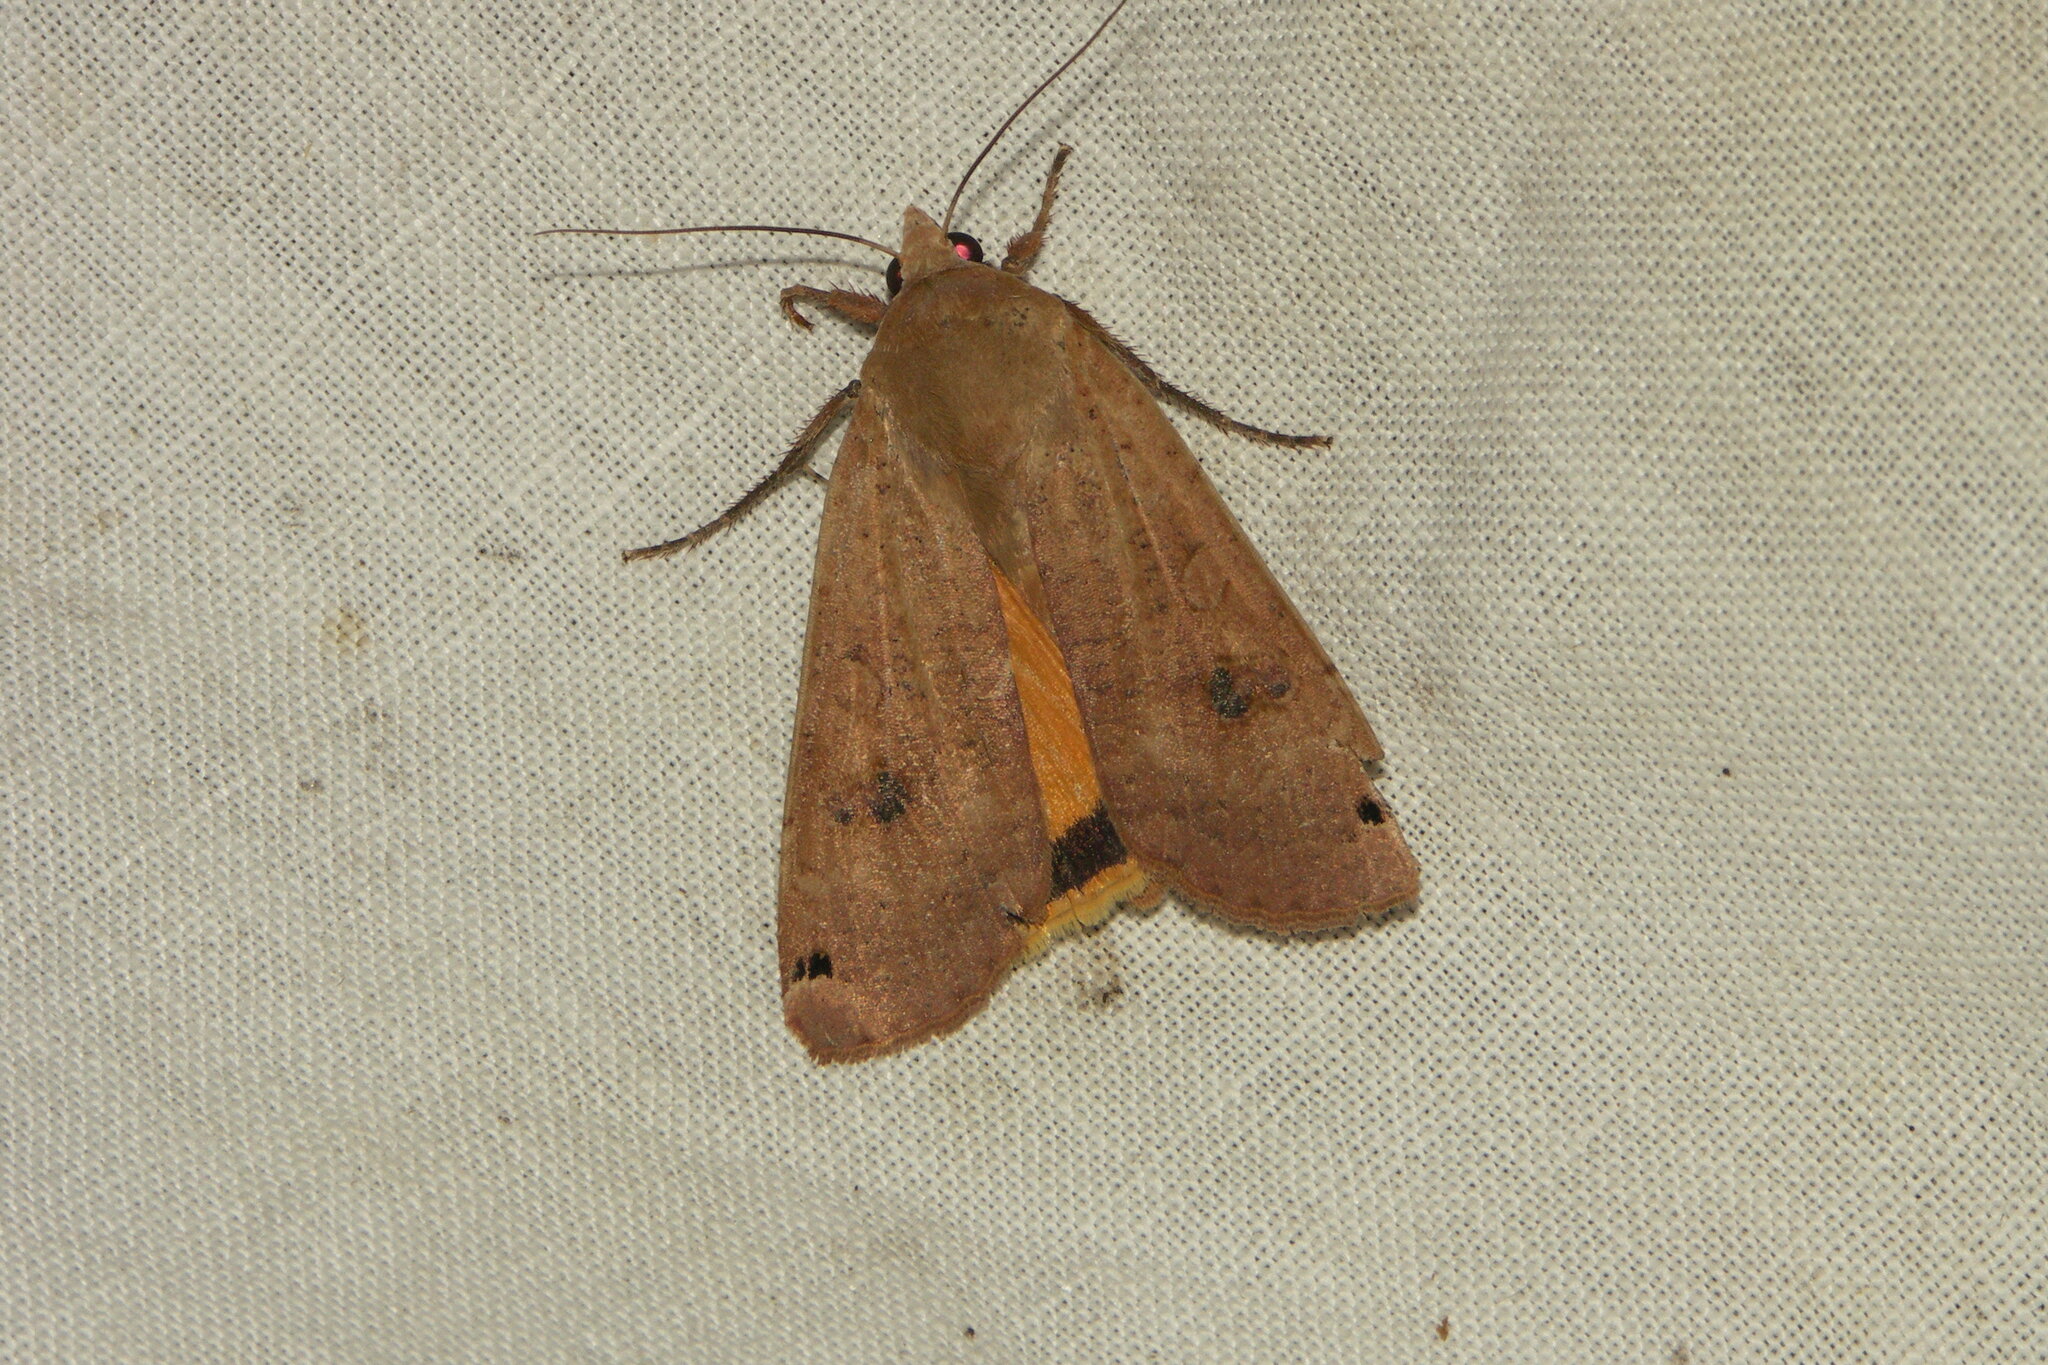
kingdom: Animalia
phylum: Arthropoda
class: Insecta
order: Lepidoptera
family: Noctuidae
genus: Noctua
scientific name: Noctua pronuba
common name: Large yellow underwing
